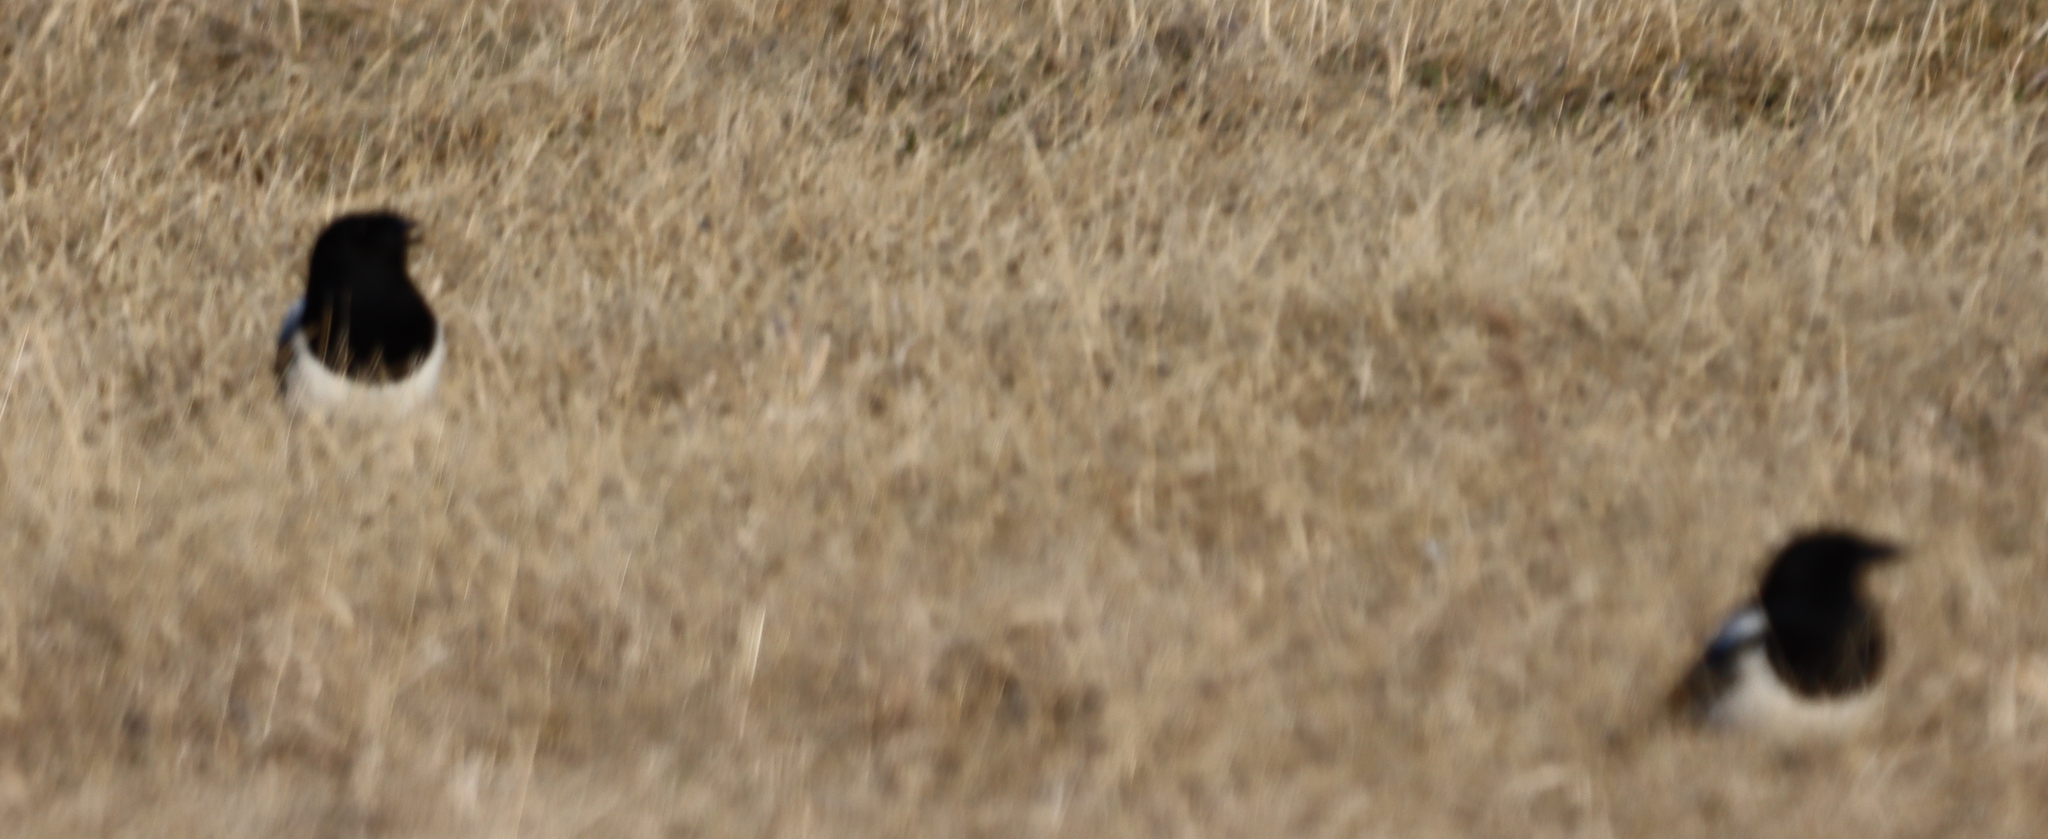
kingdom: Animalia
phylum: Chordata
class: Aves
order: Passeriformes
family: Corvidae
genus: Pica
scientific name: Pica hudsonia
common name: Black-billed magpie
